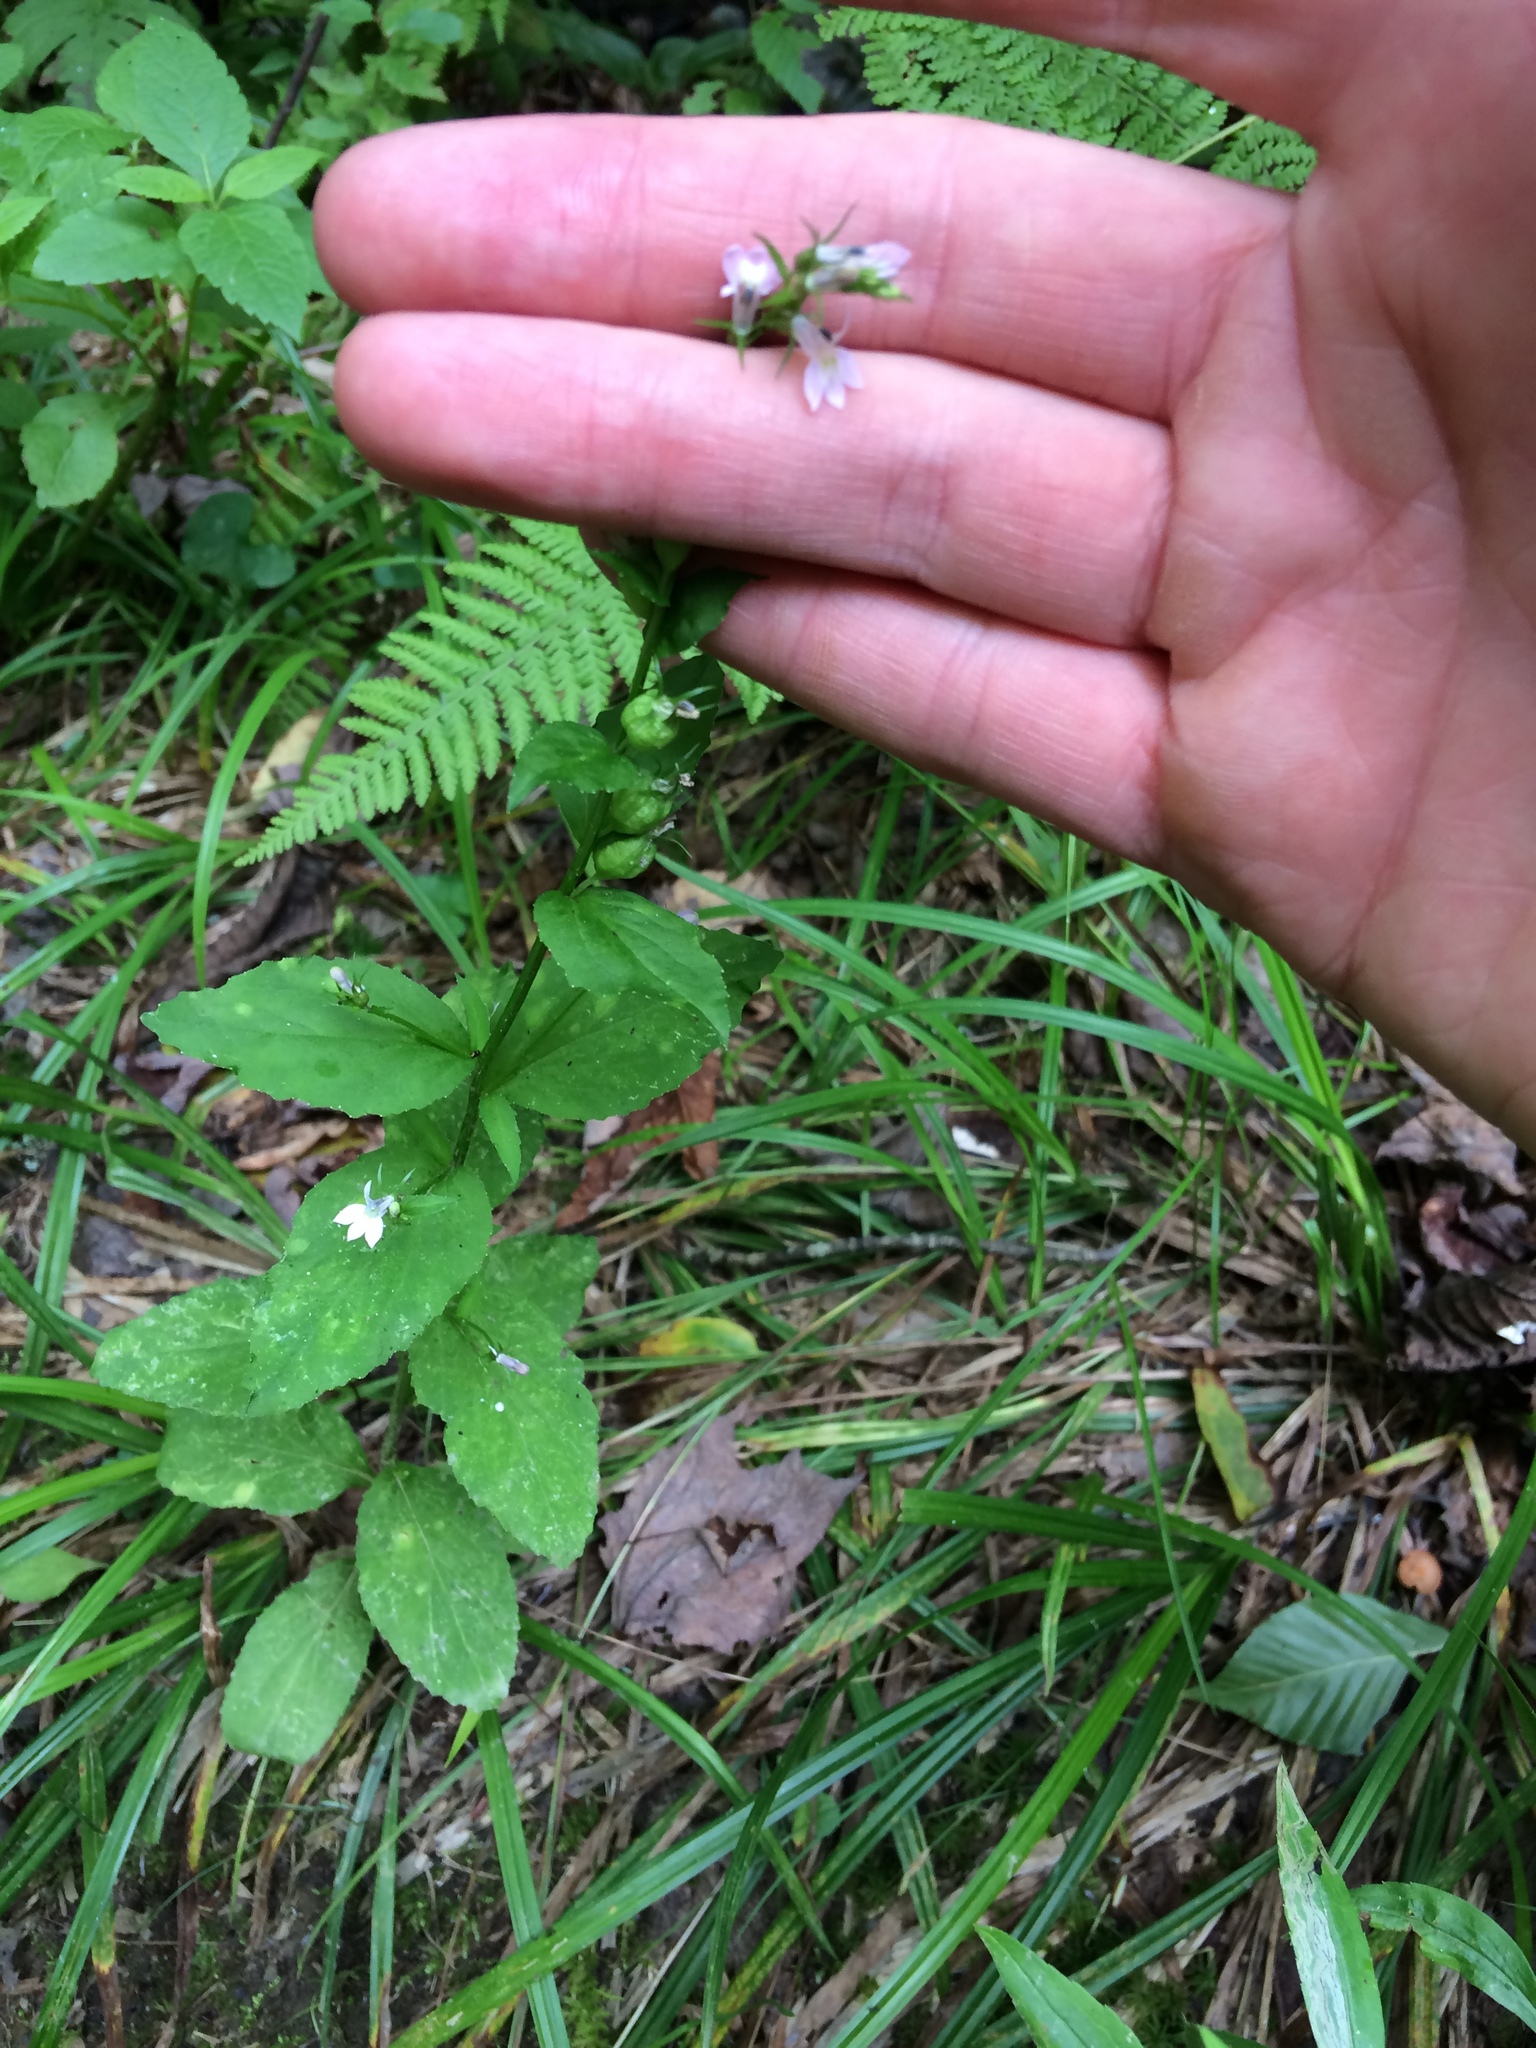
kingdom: Plantae
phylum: Tracheophyta
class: Magnoliopsida
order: Asterales
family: Campanulaceae
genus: Lobelia
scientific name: Lobelia inflata
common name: Indian tobacco
